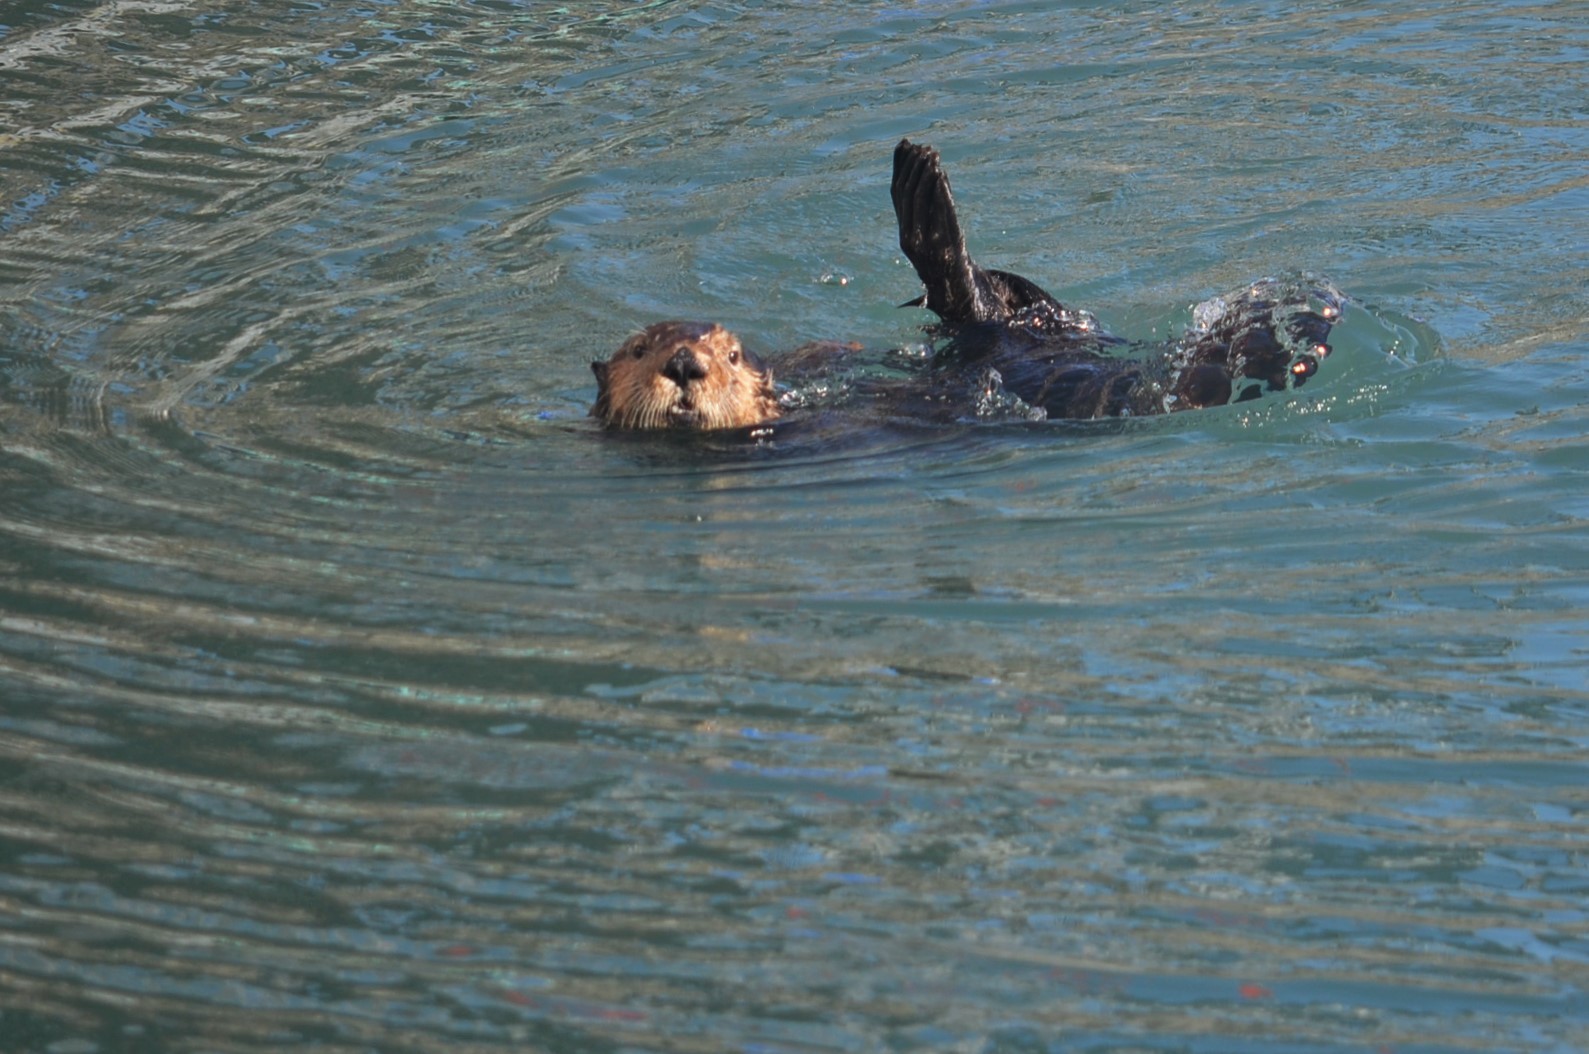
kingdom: Animalia
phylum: Chordata
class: Mammalia
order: Carnivora
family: Mustelidae
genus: Enhydra
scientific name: Enhydra lutris
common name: Sea otter
